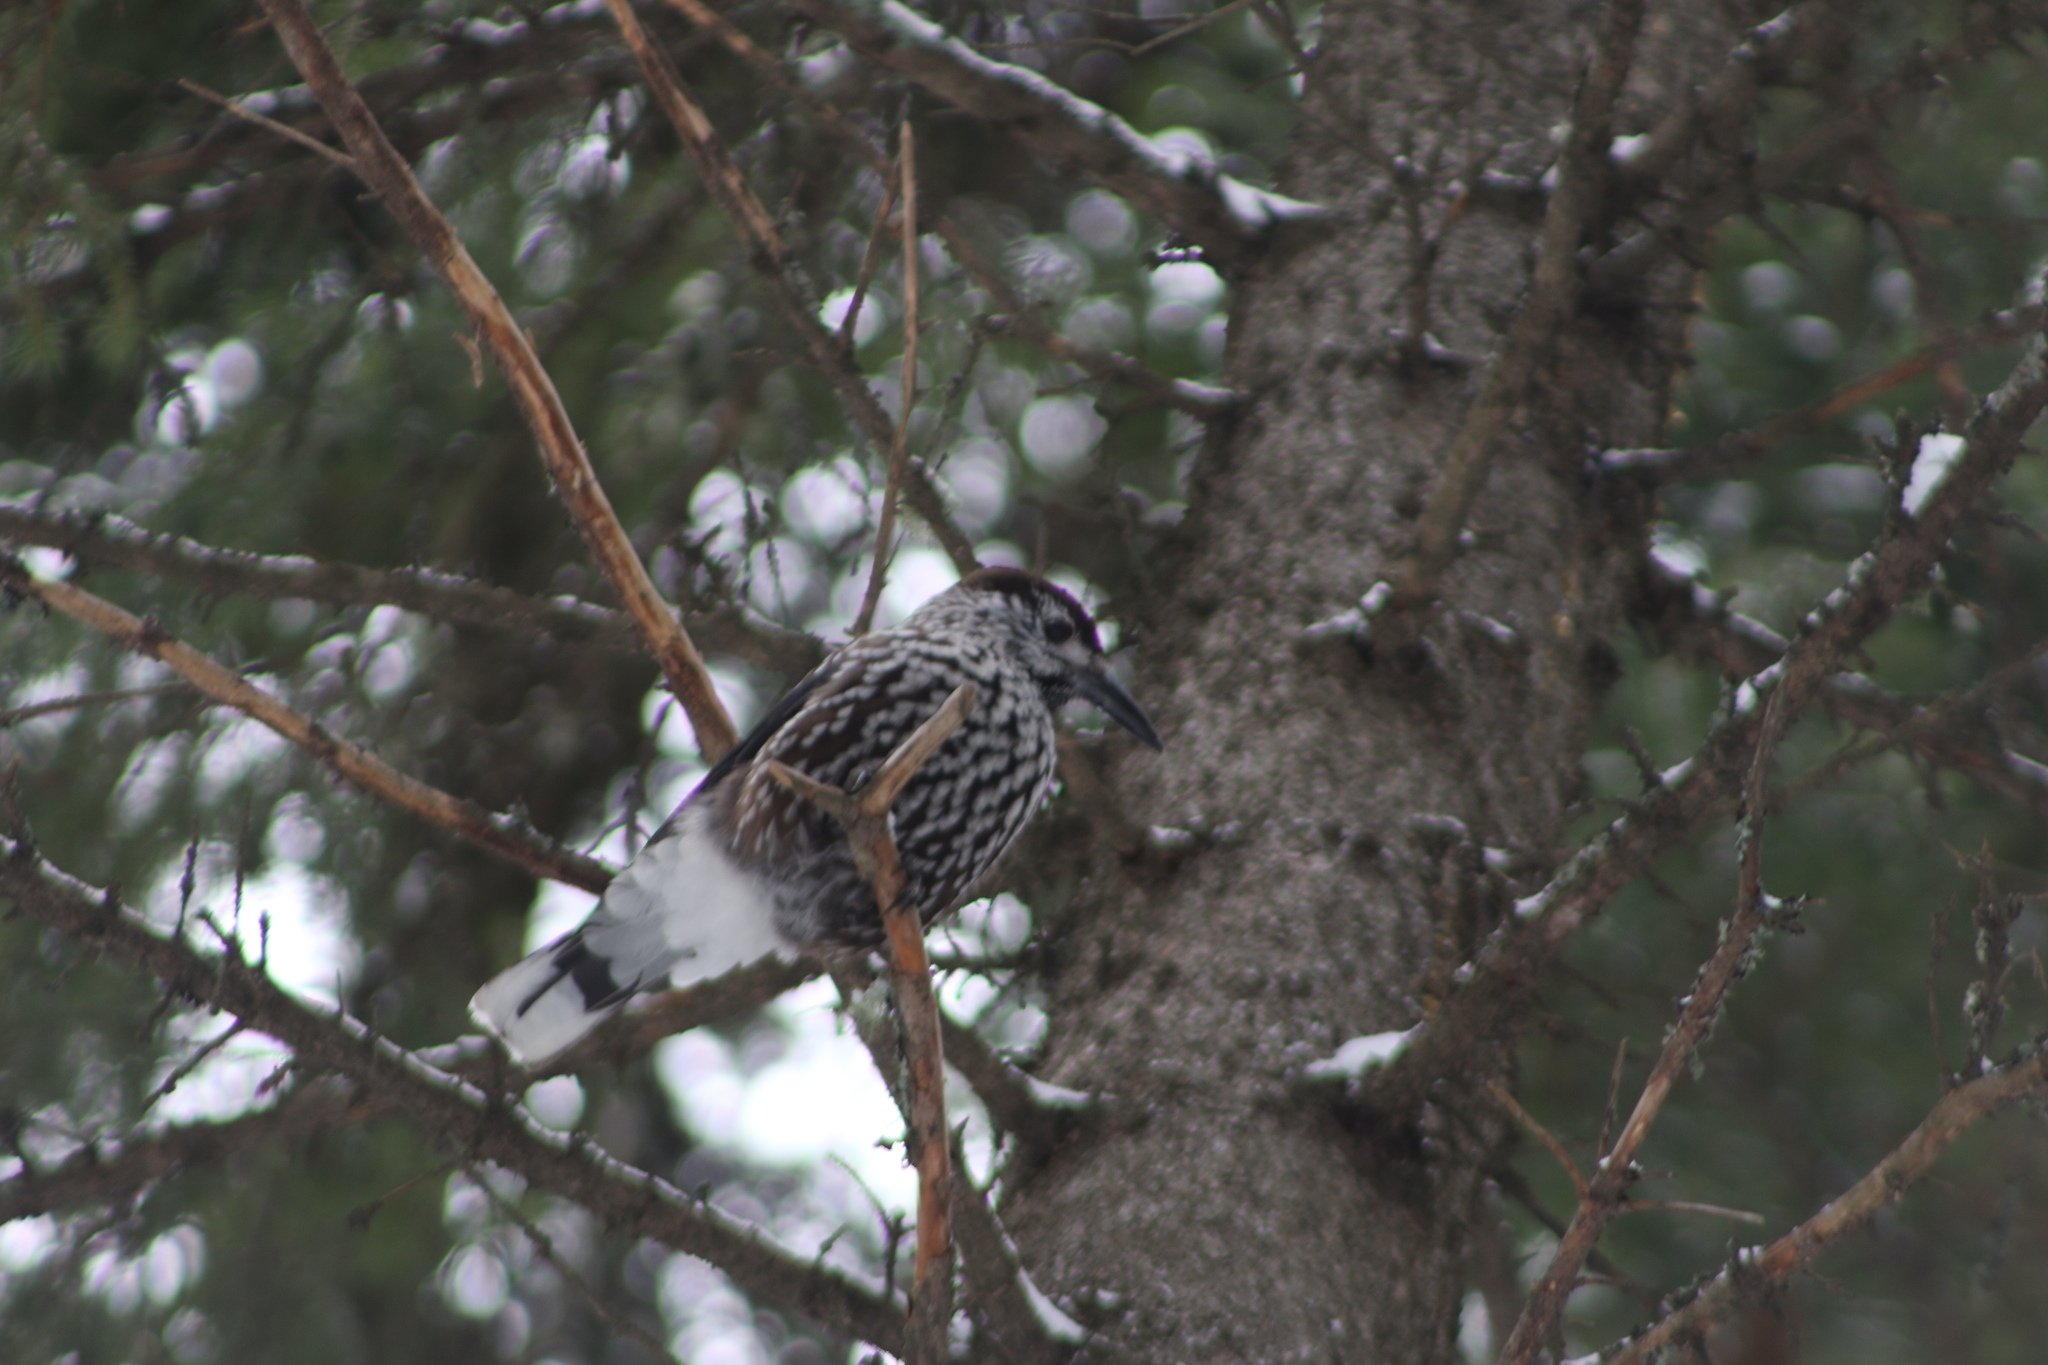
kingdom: Animalia
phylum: Chordata
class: Aves
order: Passeriformes
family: Corvidae
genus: Nucifraga
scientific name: Nucifraga caryocatactes
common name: Spotted nutcracker
